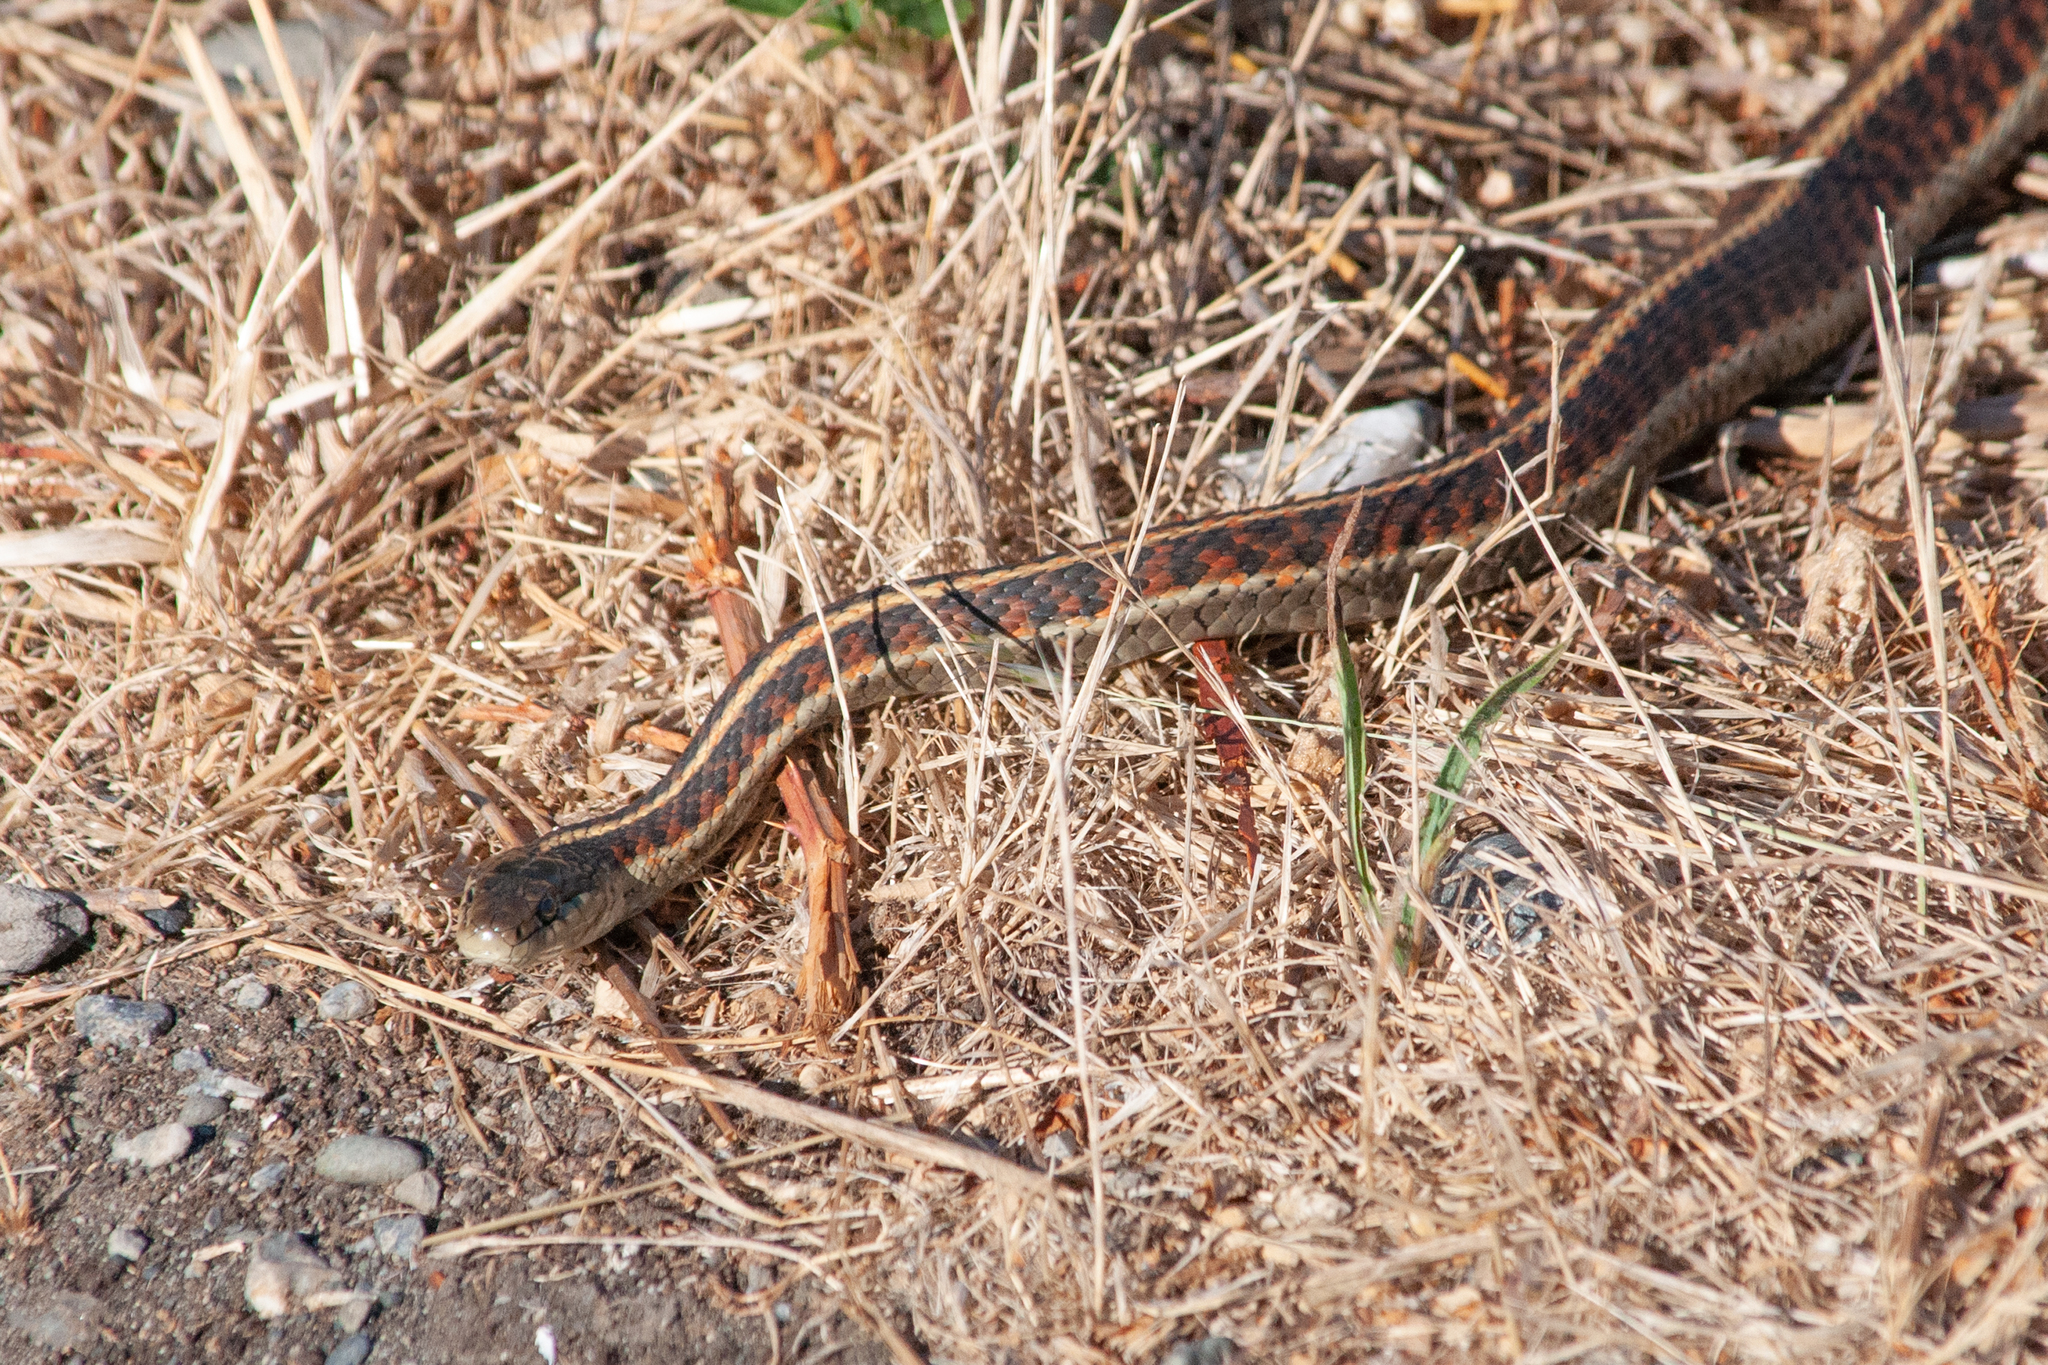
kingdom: Animalia
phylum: Chordata
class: Squamata
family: Colubridae
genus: Thamnophis
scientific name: Thamnophis sirtalis
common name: Common garter snake
